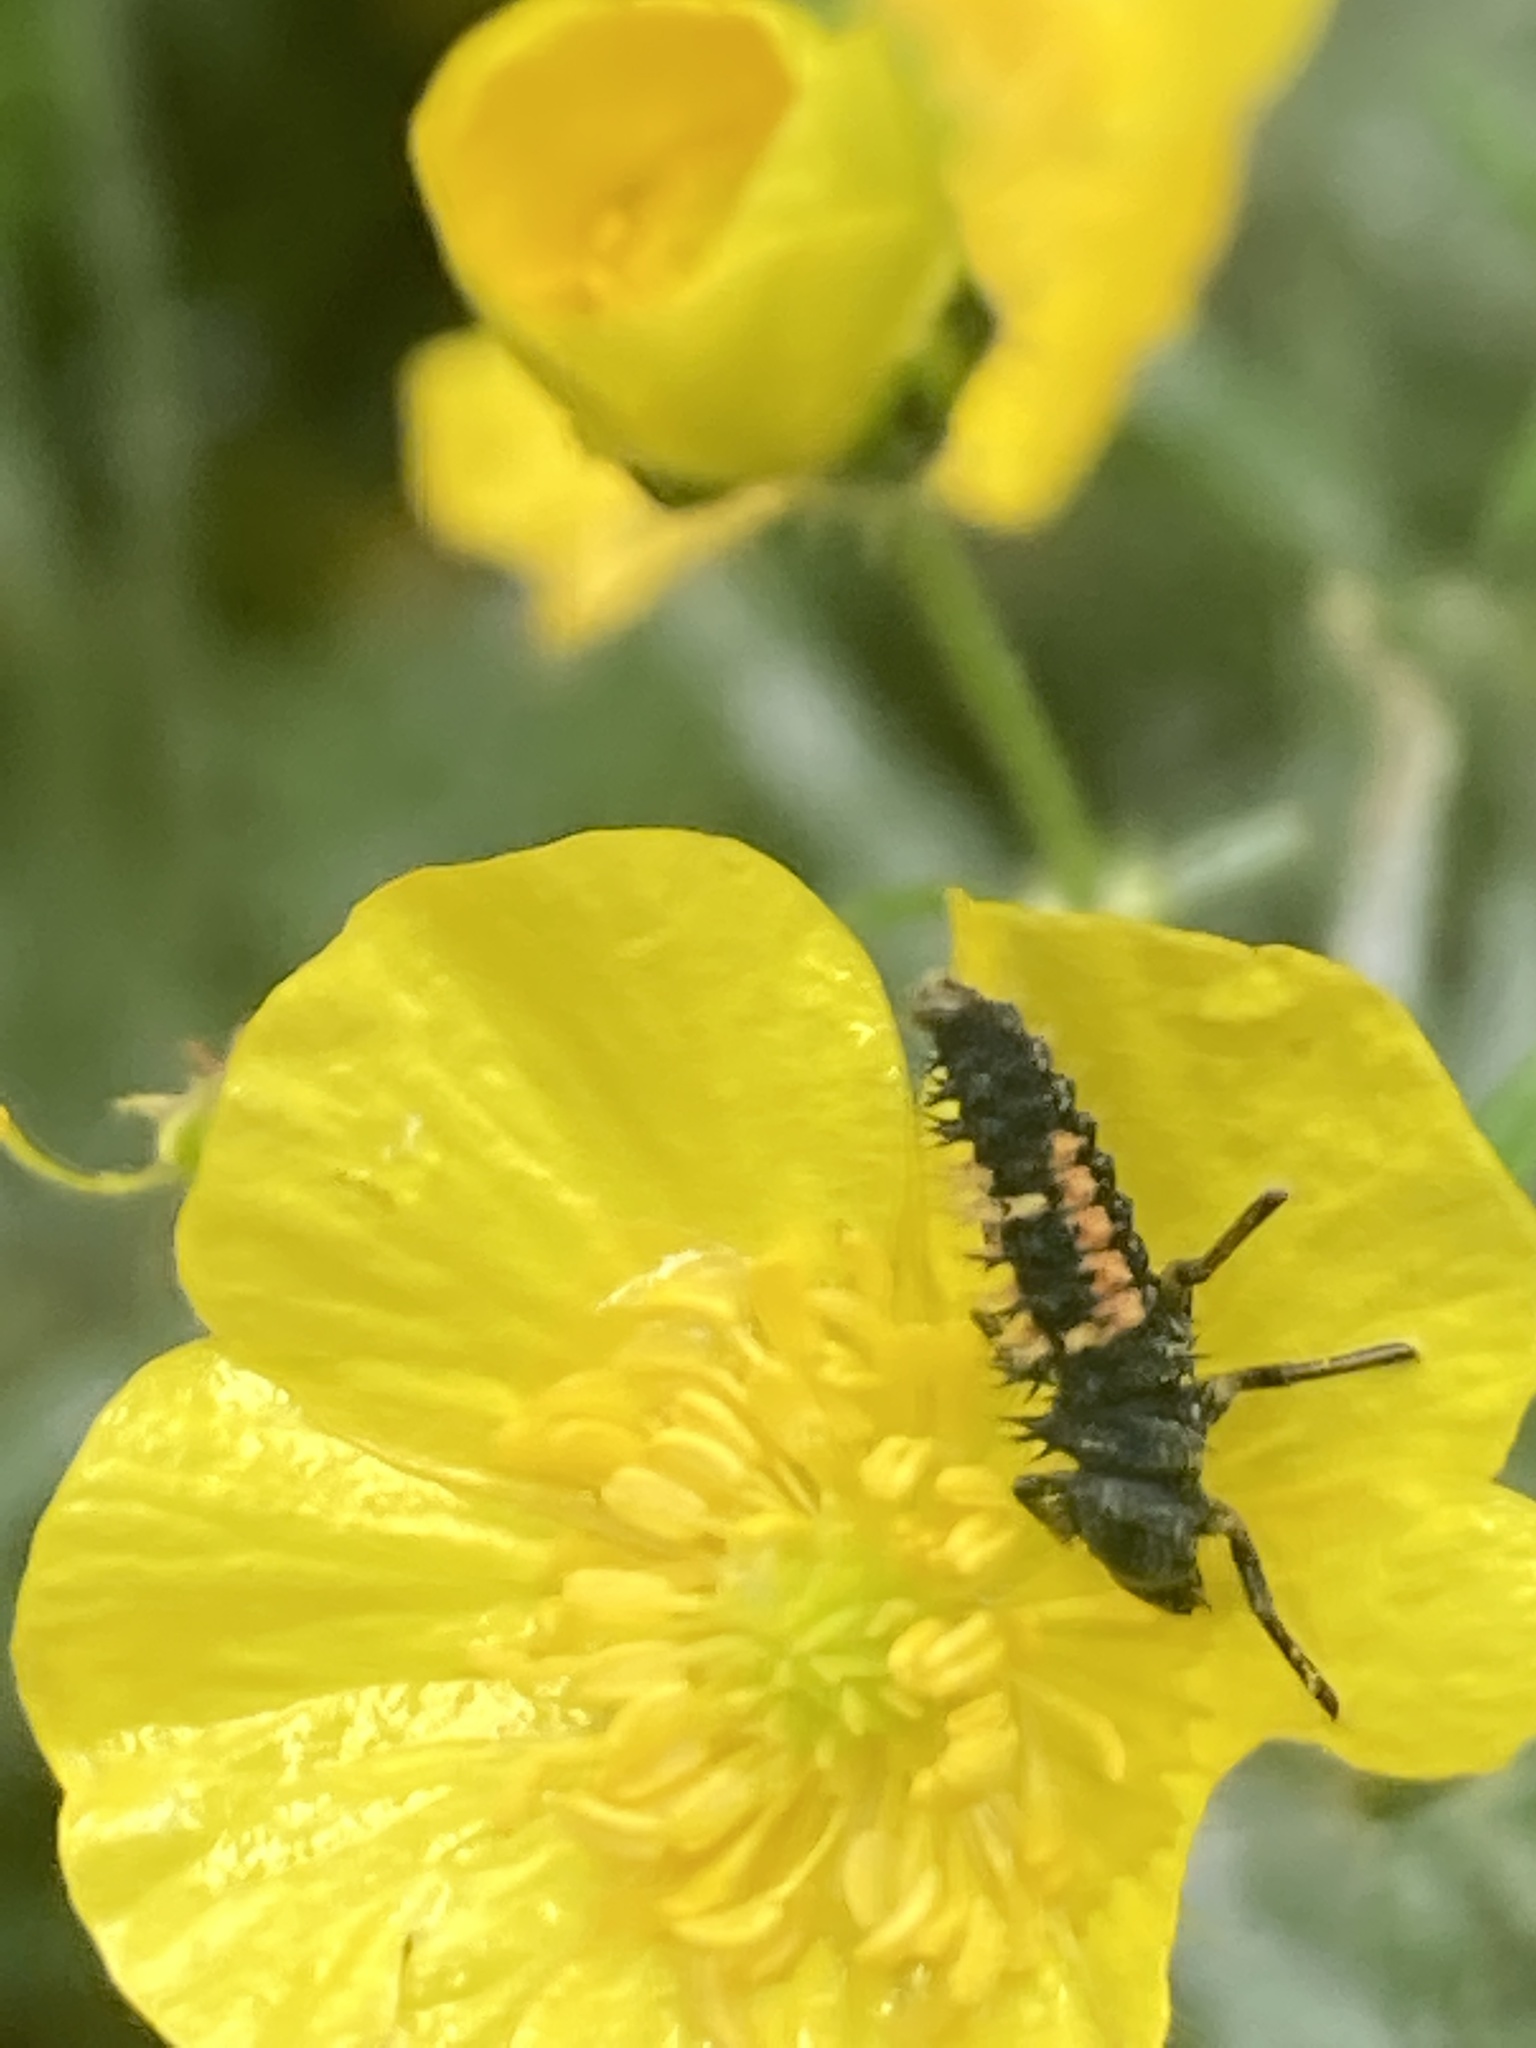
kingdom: Animalia
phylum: Arthropoda
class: Insecta
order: Coleoptera
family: Coccinellidae
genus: Harmonia
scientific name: Harmonia axyridis
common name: Harlequin ladybird
